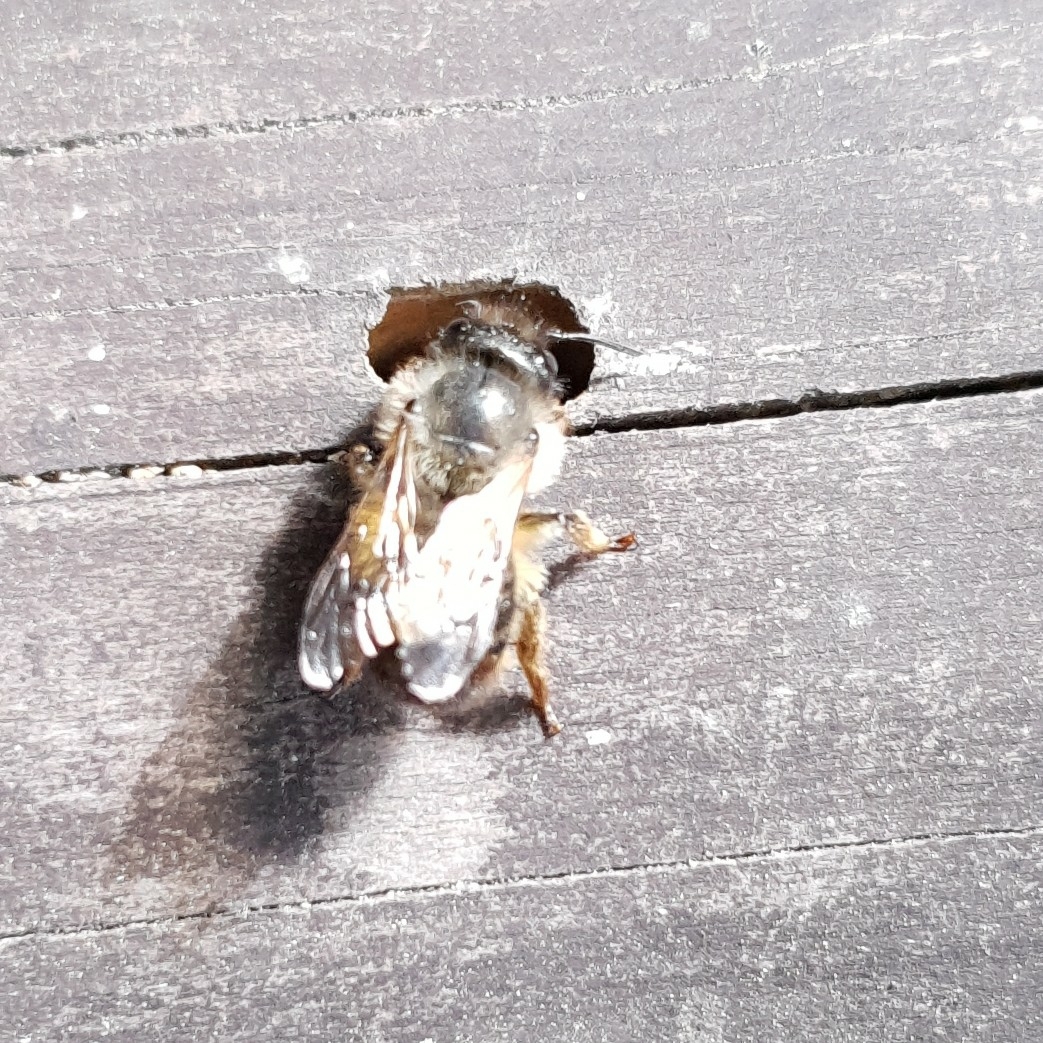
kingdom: Animalia
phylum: Arthropoda
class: Insecta
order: Hymenoptera
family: Megachilidae
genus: Osmia
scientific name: Osmia bicornis
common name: Red mason bee
